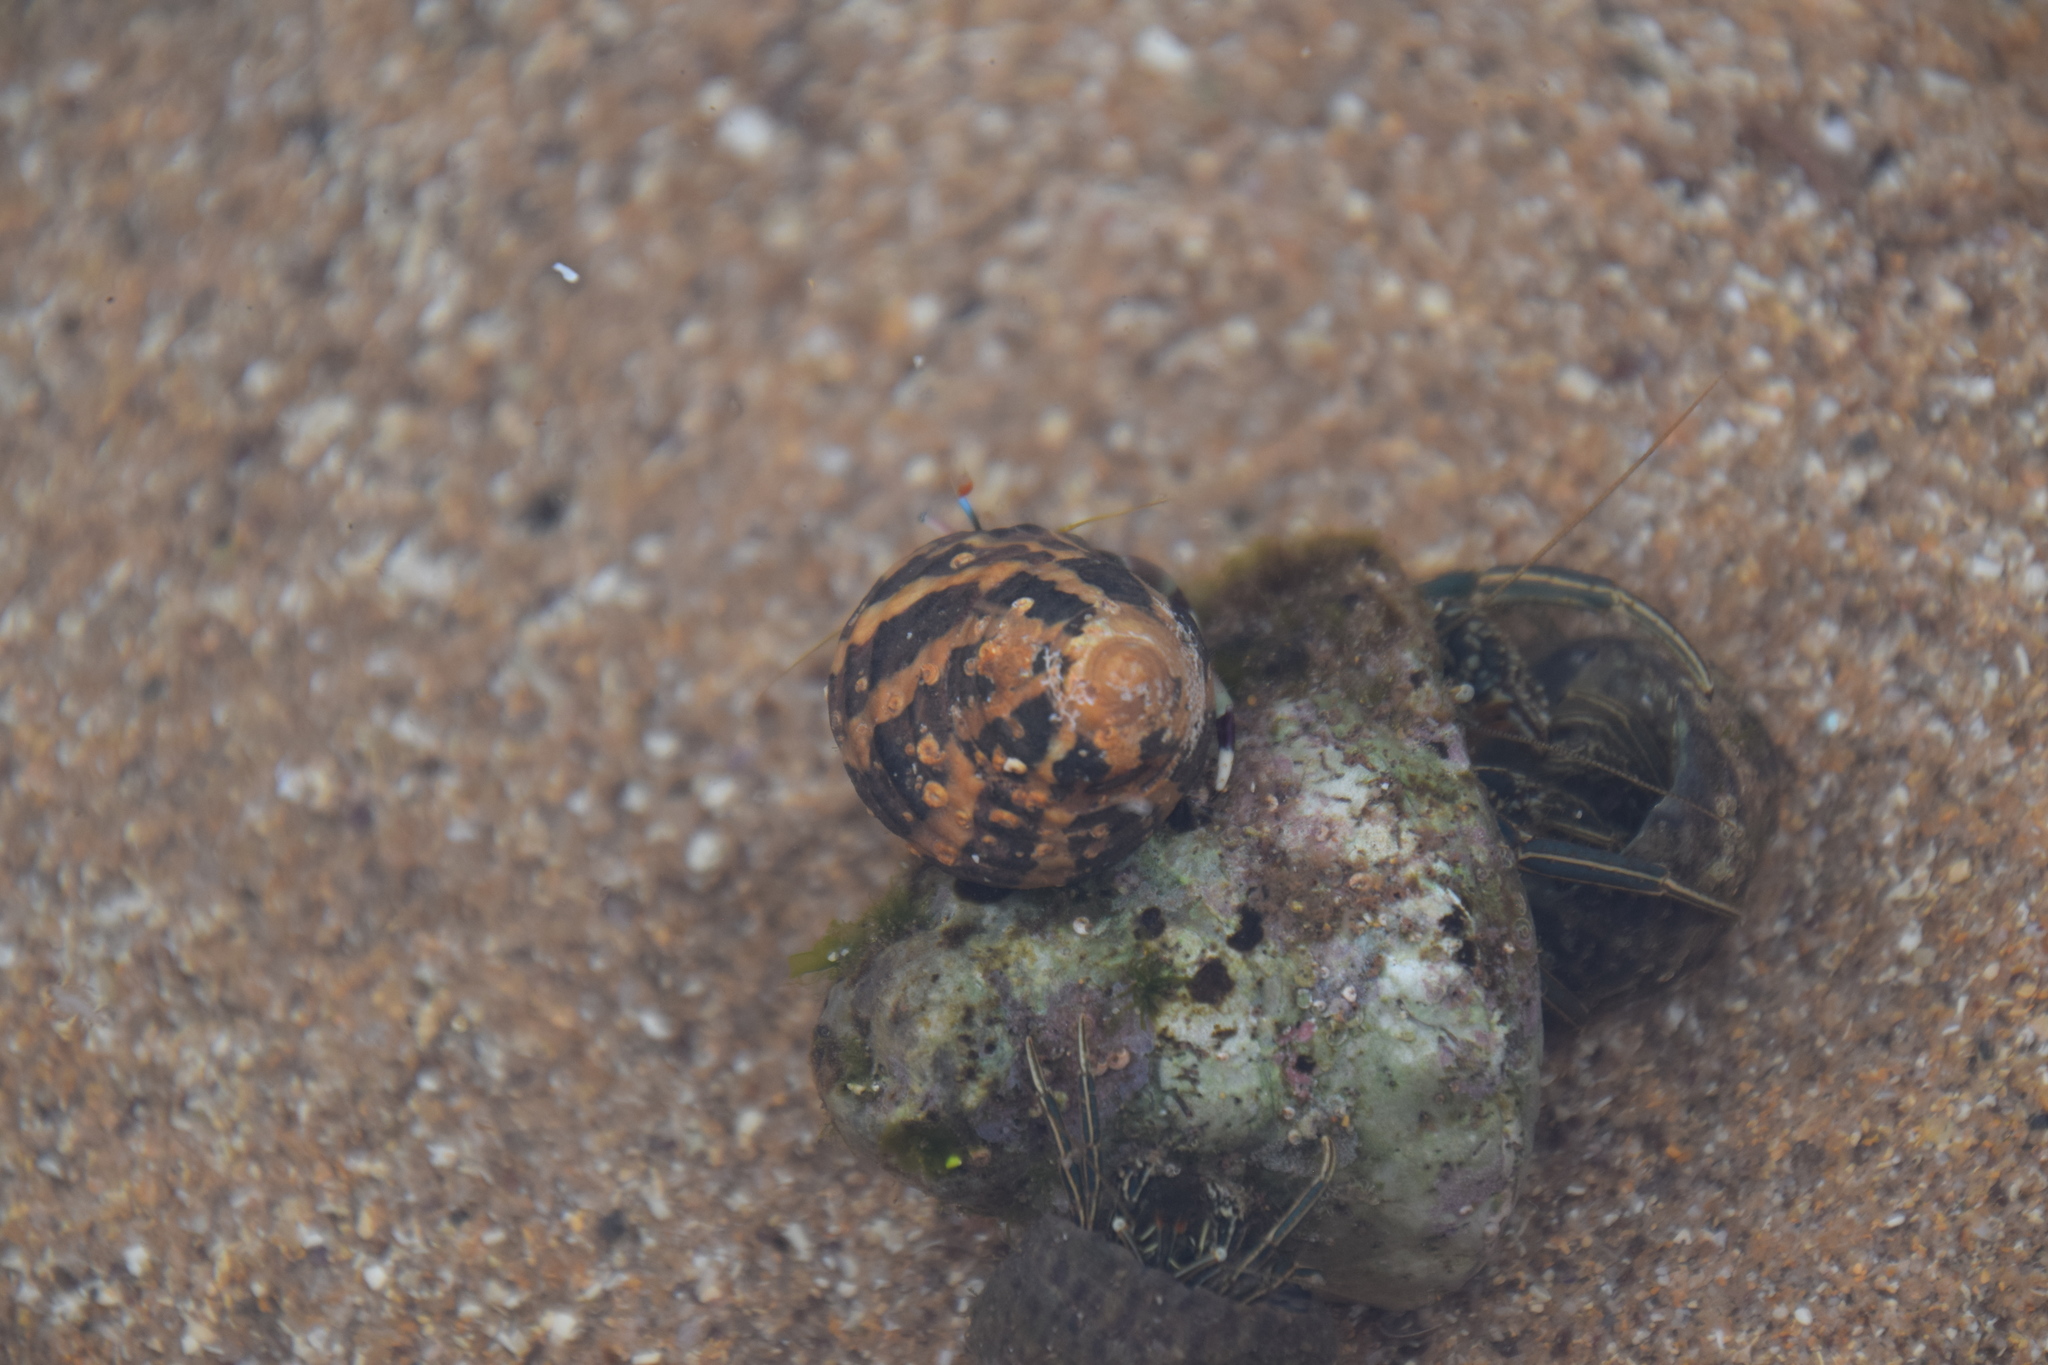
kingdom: Animalia
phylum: Mollusca
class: Gastropoda
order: Trochida
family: Trochidae
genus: Austrocochlea
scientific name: Austrocochlea porcata
